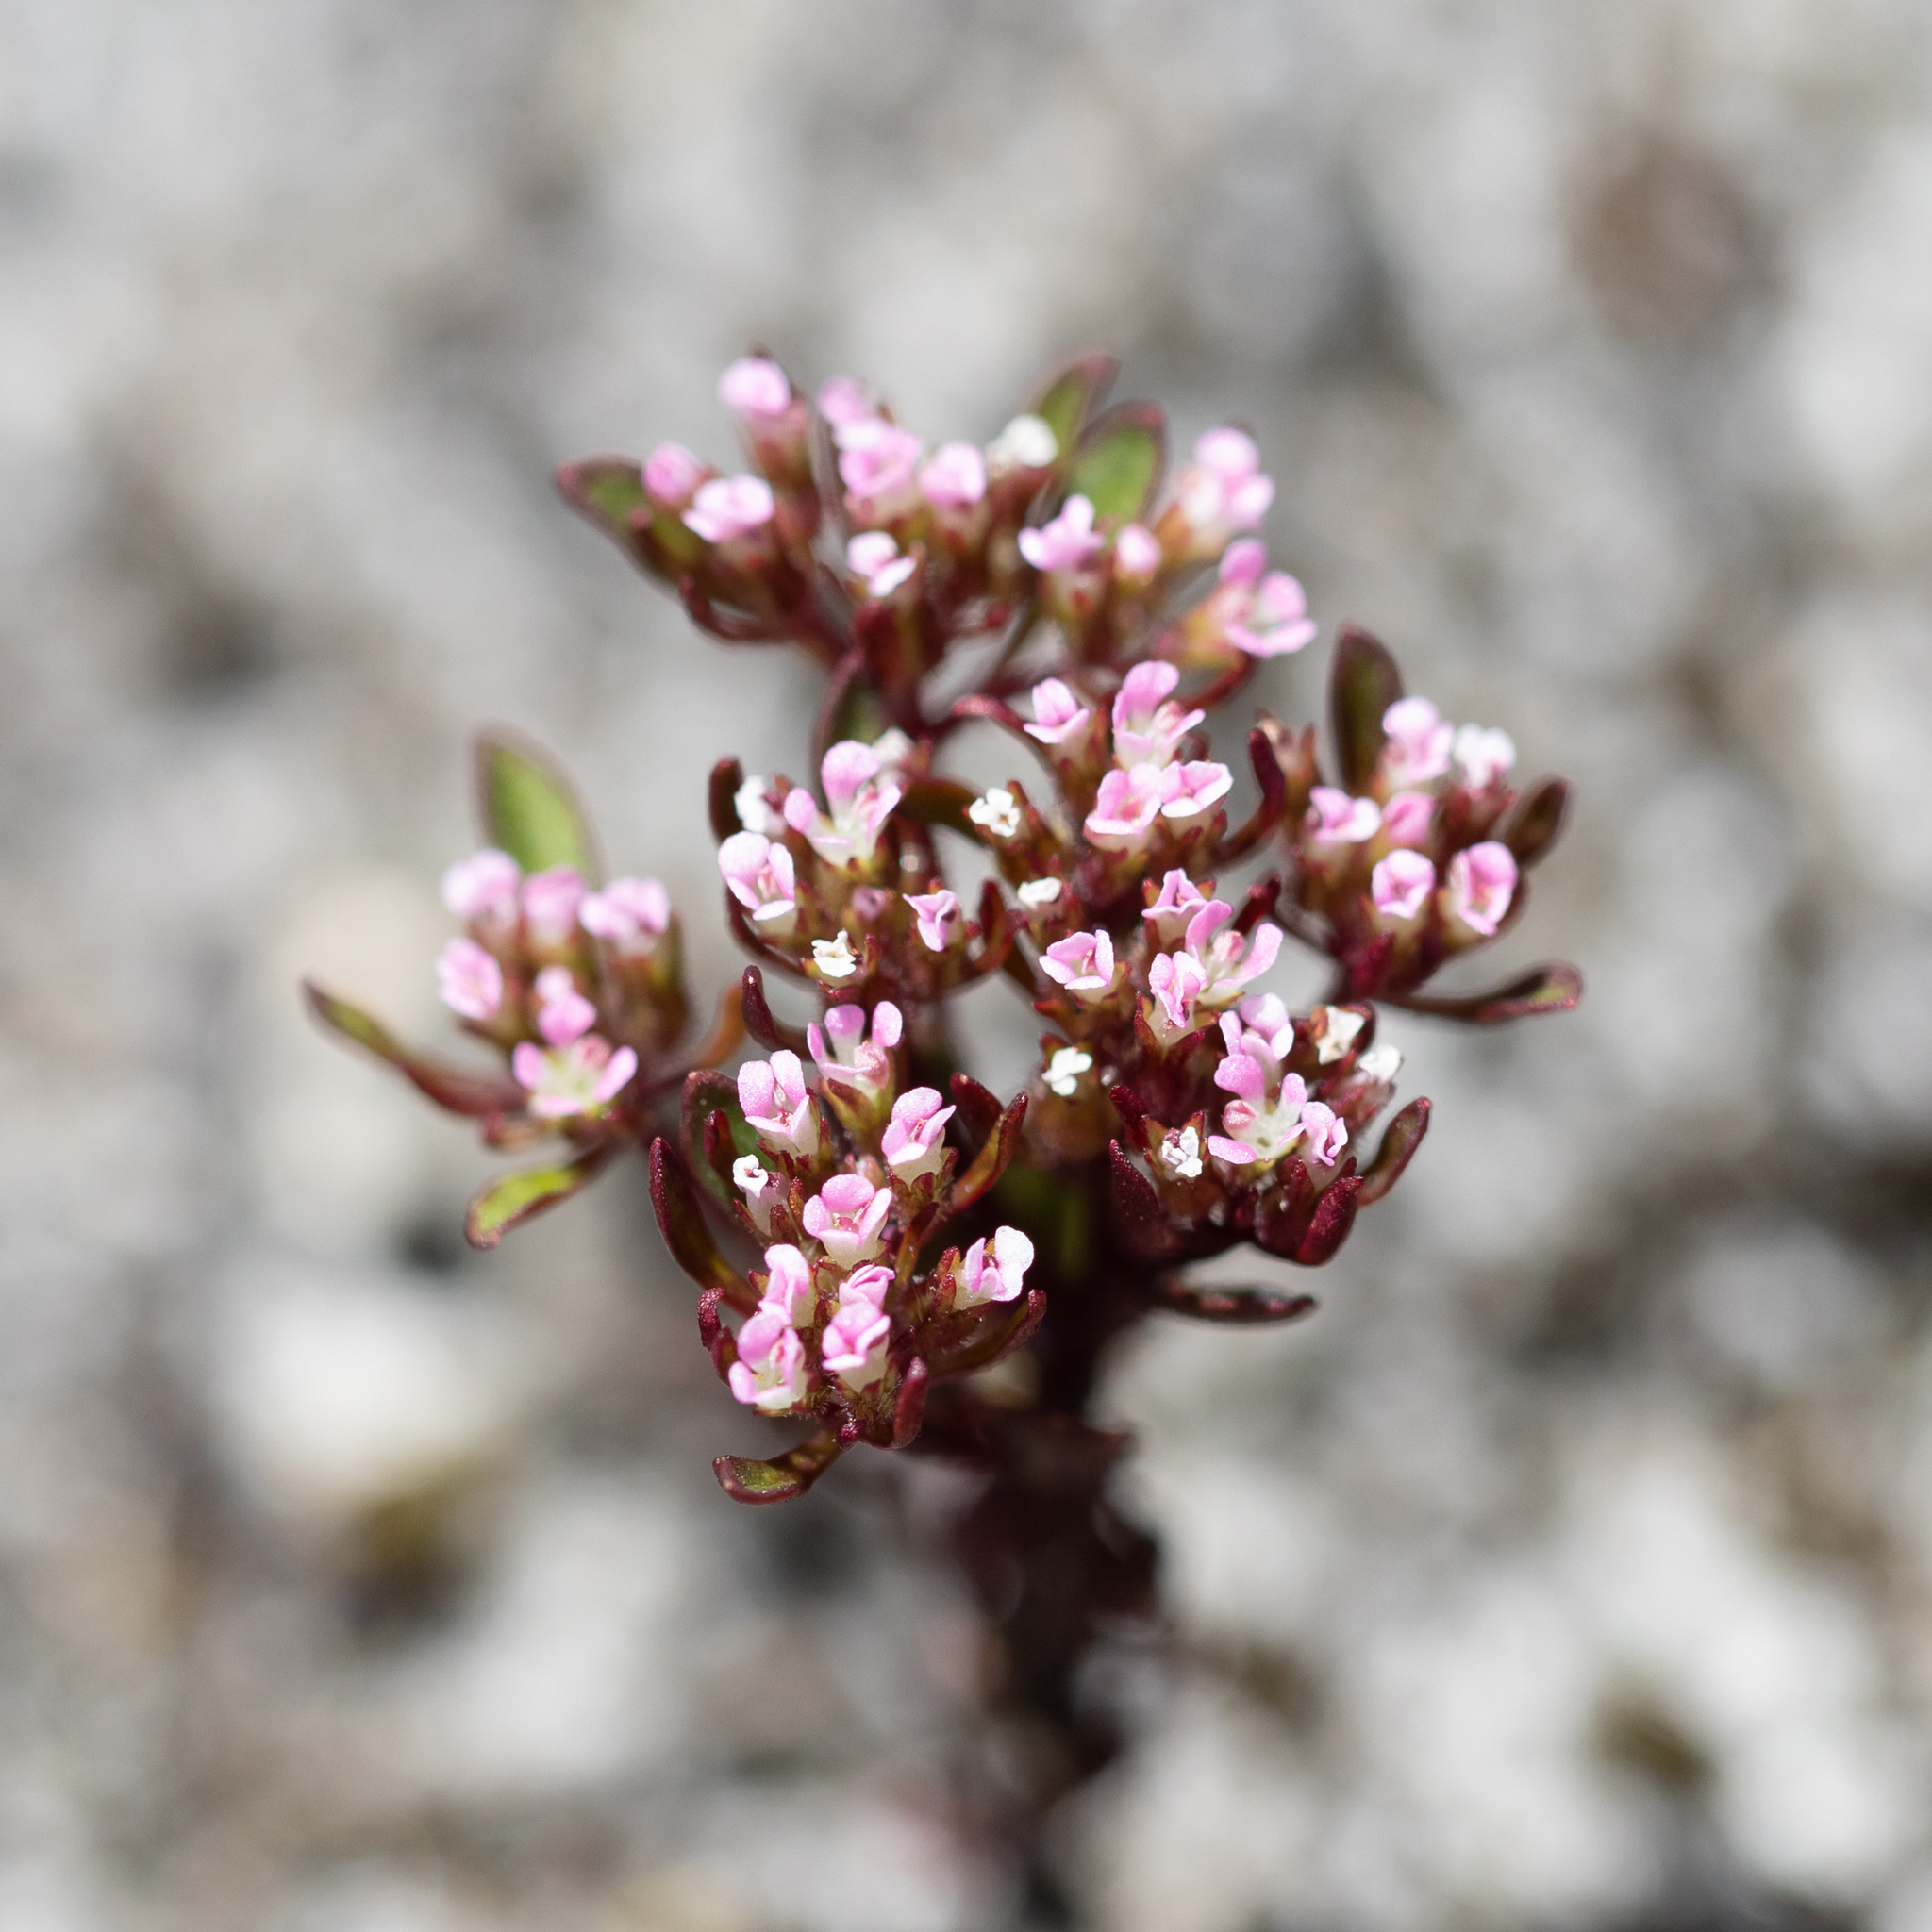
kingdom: Plantae
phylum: Tracheophyta
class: Magnoliopsida
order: Asterales
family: Stylidiaceae
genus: Levenhookia
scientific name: Levenhookia pusilla
